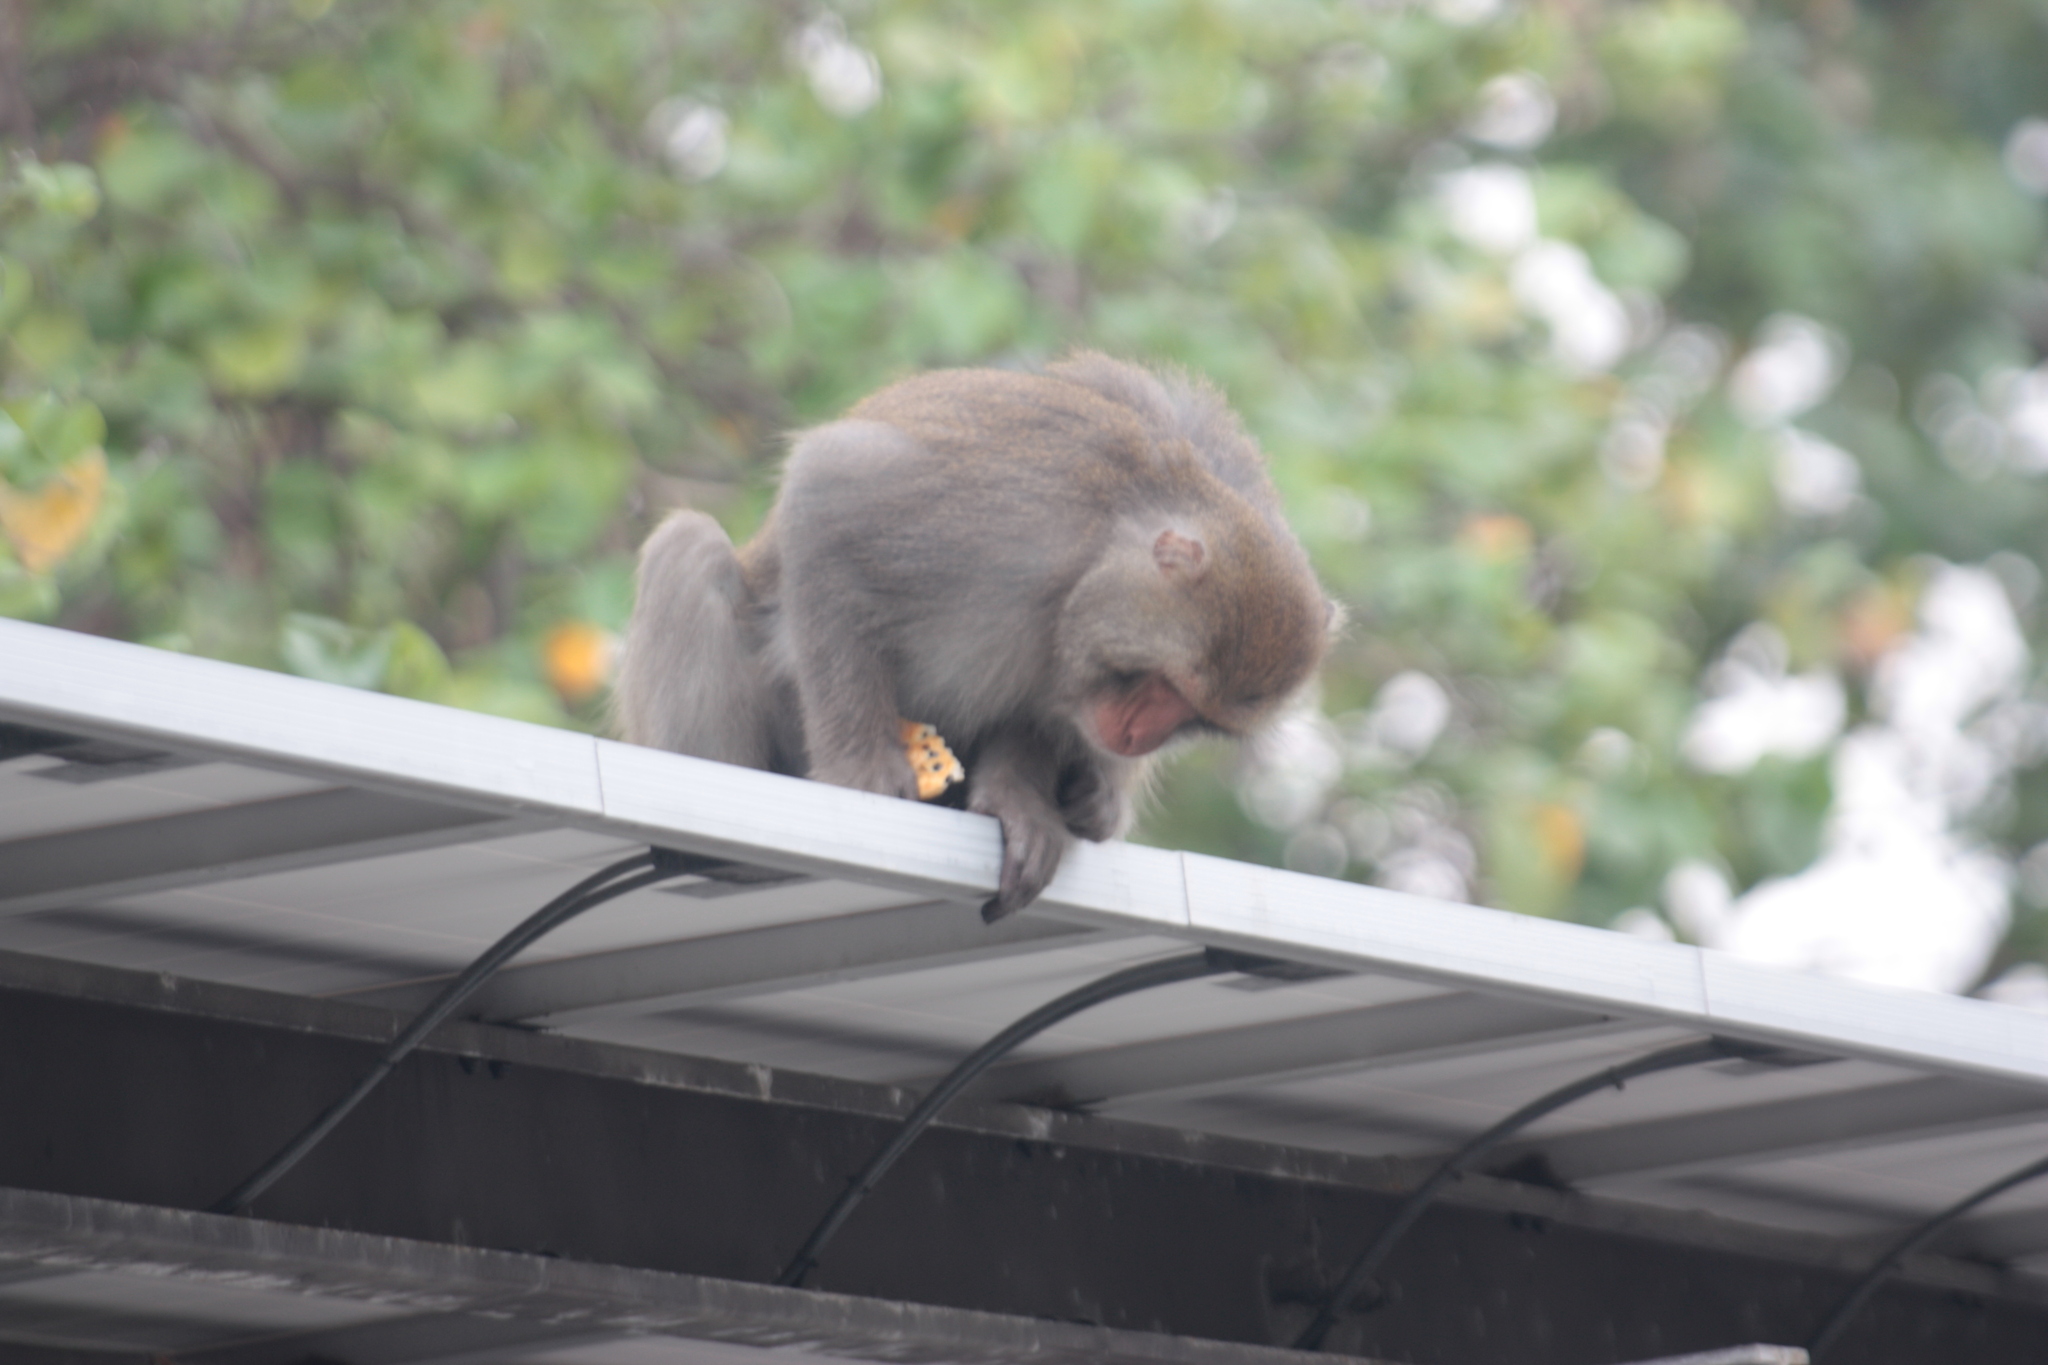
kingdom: Animalia
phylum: Chordata
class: Mammalia
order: Primates
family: Cercopithecidae
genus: Macaca
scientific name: Macaca cyclopis
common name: Formosan rock macaque
